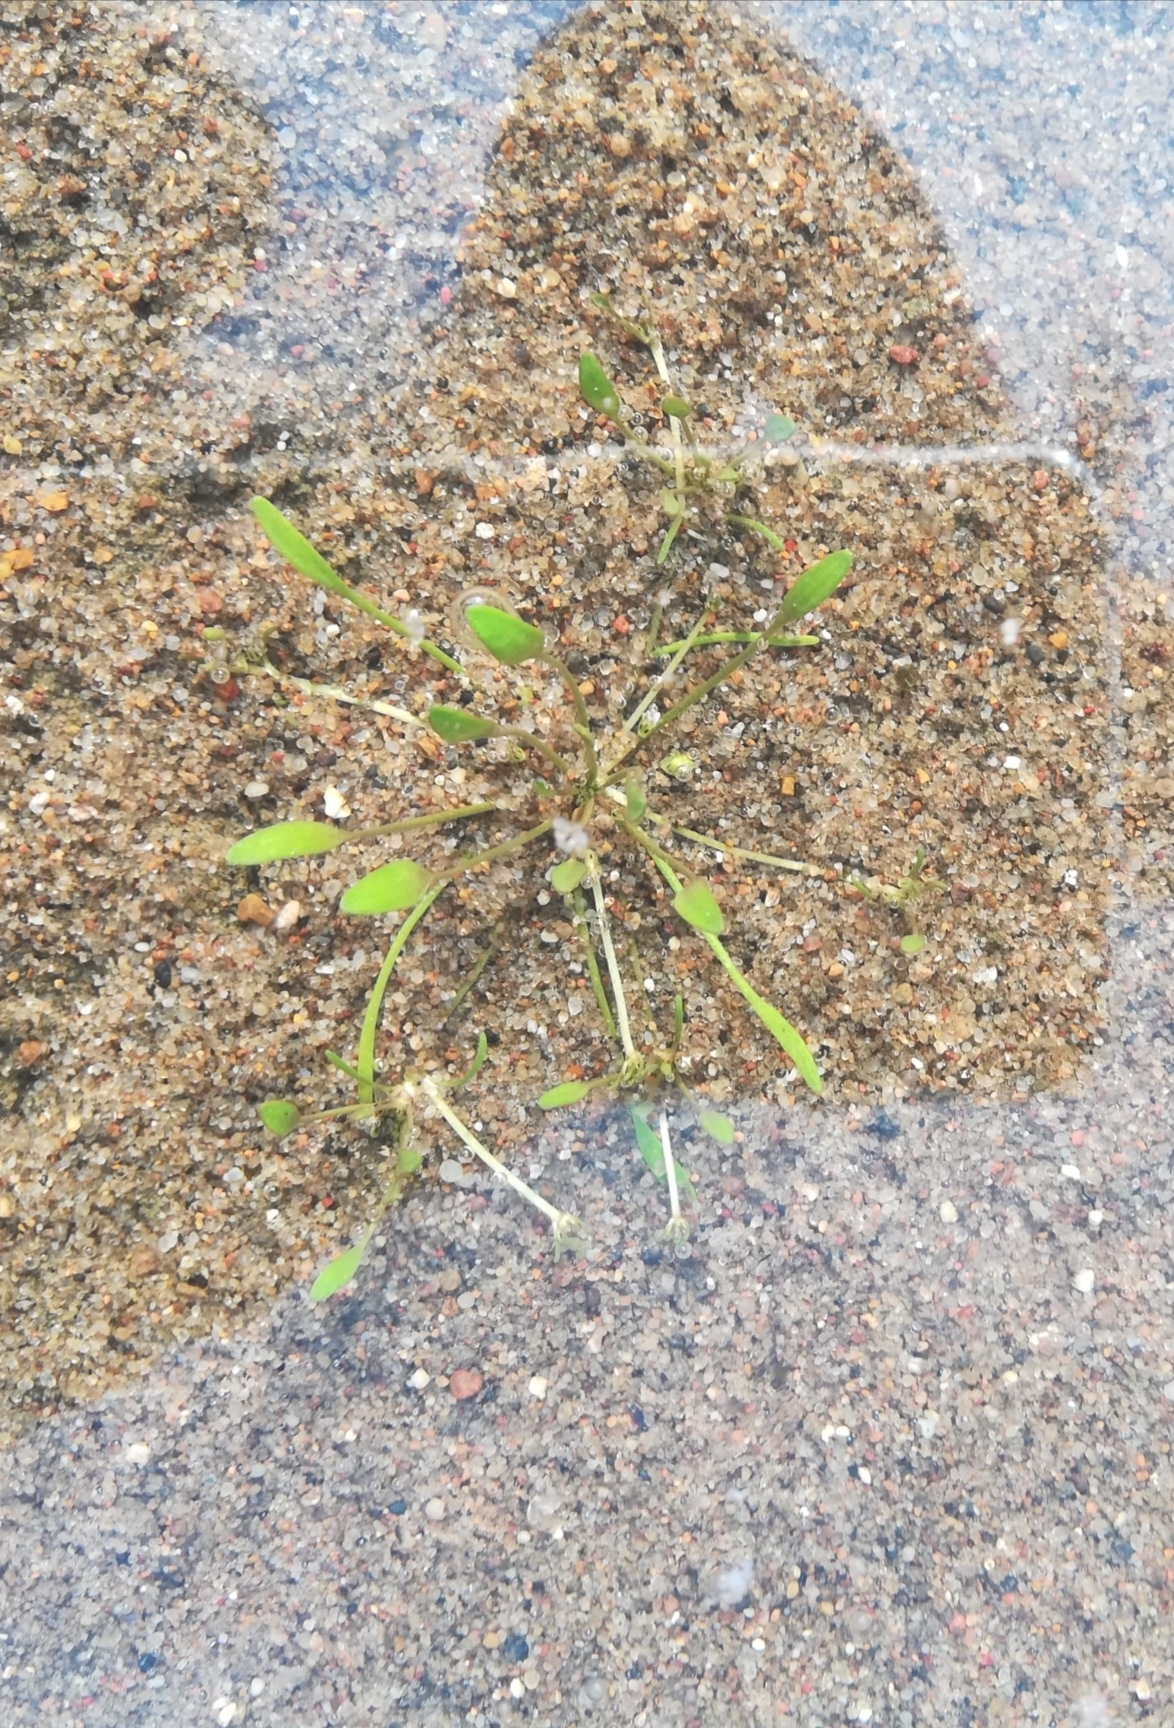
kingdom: Plantae
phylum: Tracheophyta
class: Magnoliopsida
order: Lamiales
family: Scrophulariaceae
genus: Limosella
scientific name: Limosella aquatica
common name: Mudwort
